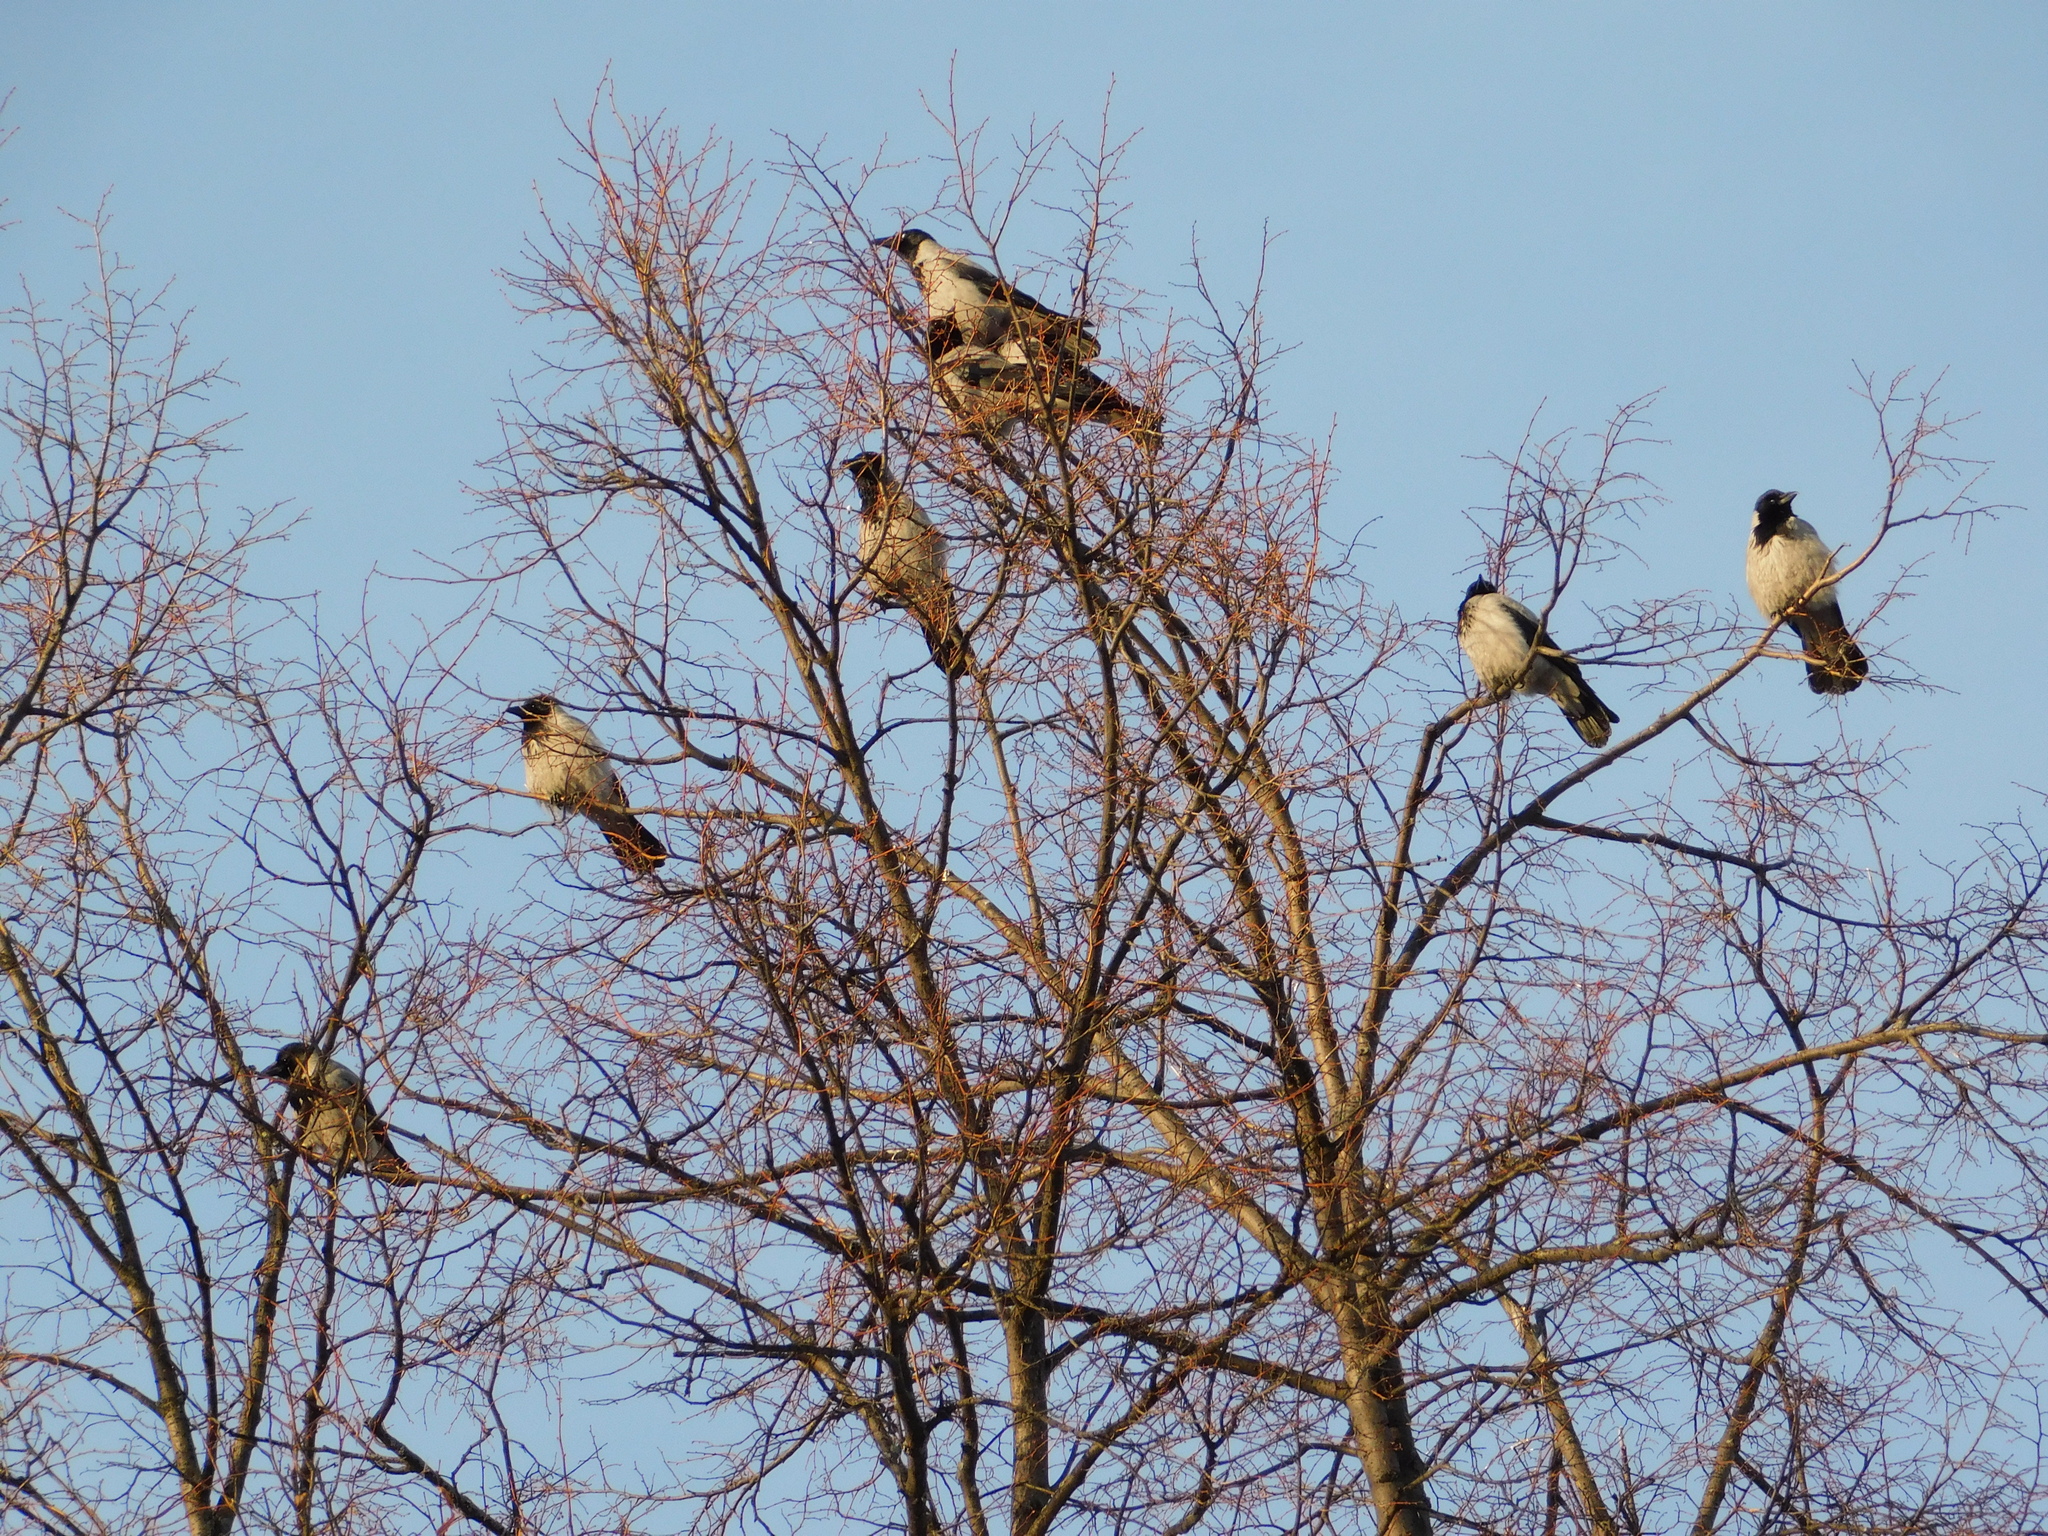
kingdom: Animalia
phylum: Chordata
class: Aves
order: Passeriformes
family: Corvidae
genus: Corvus
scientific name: Corvus cornix
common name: Hooded crow
